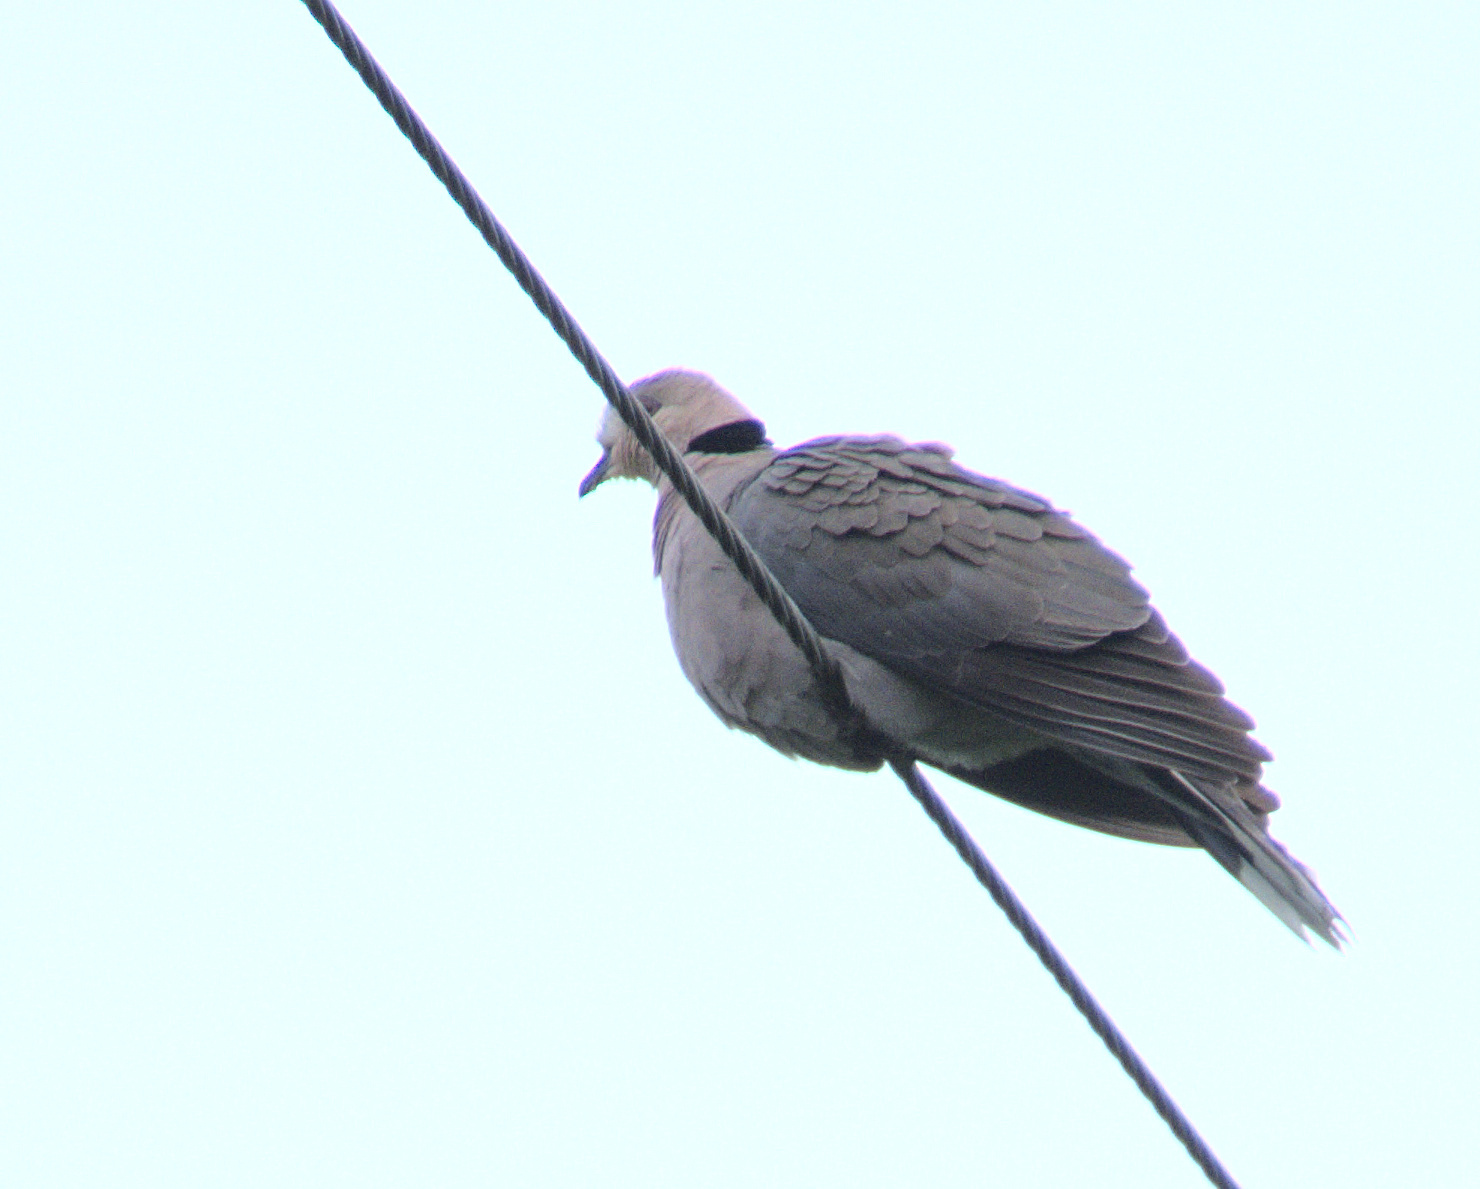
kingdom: Animalia
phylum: Chordata
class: Aves
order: Columbiformes
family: Columbidae
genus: Streptopelia
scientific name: Streptopelia semitorquata
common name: Red-eyed dove
